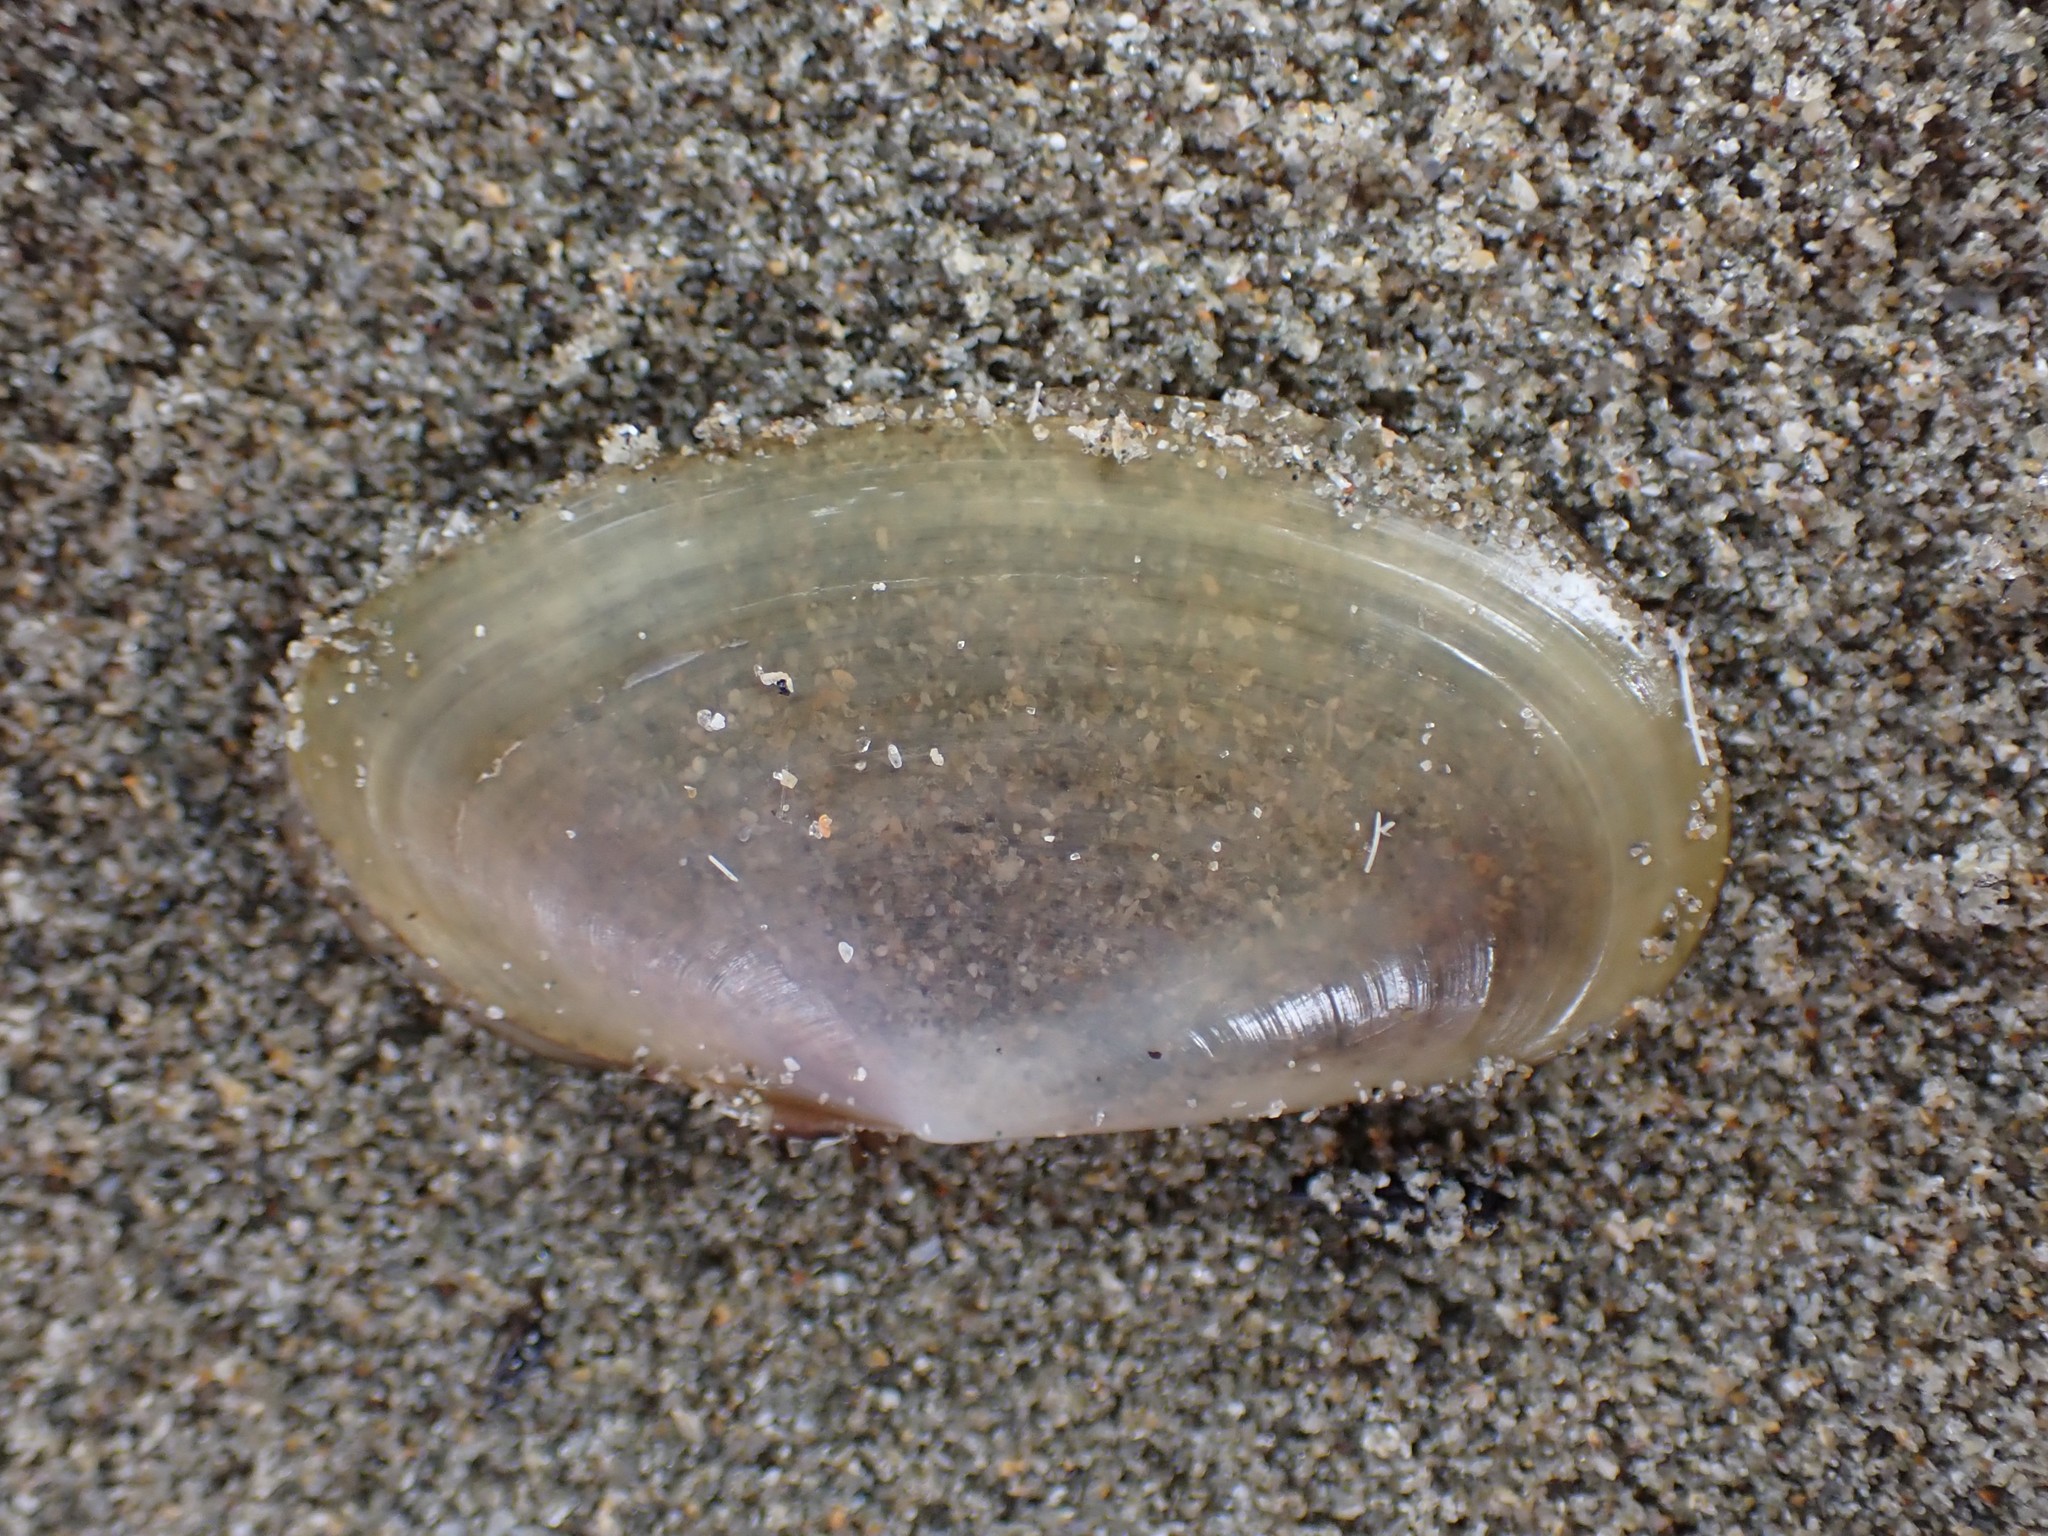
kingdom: Animalia
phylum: Mollusca
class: Bivalvia
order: Cardiida
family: Psammobiidae
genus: Hiatula
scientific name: Hiatula nitida
